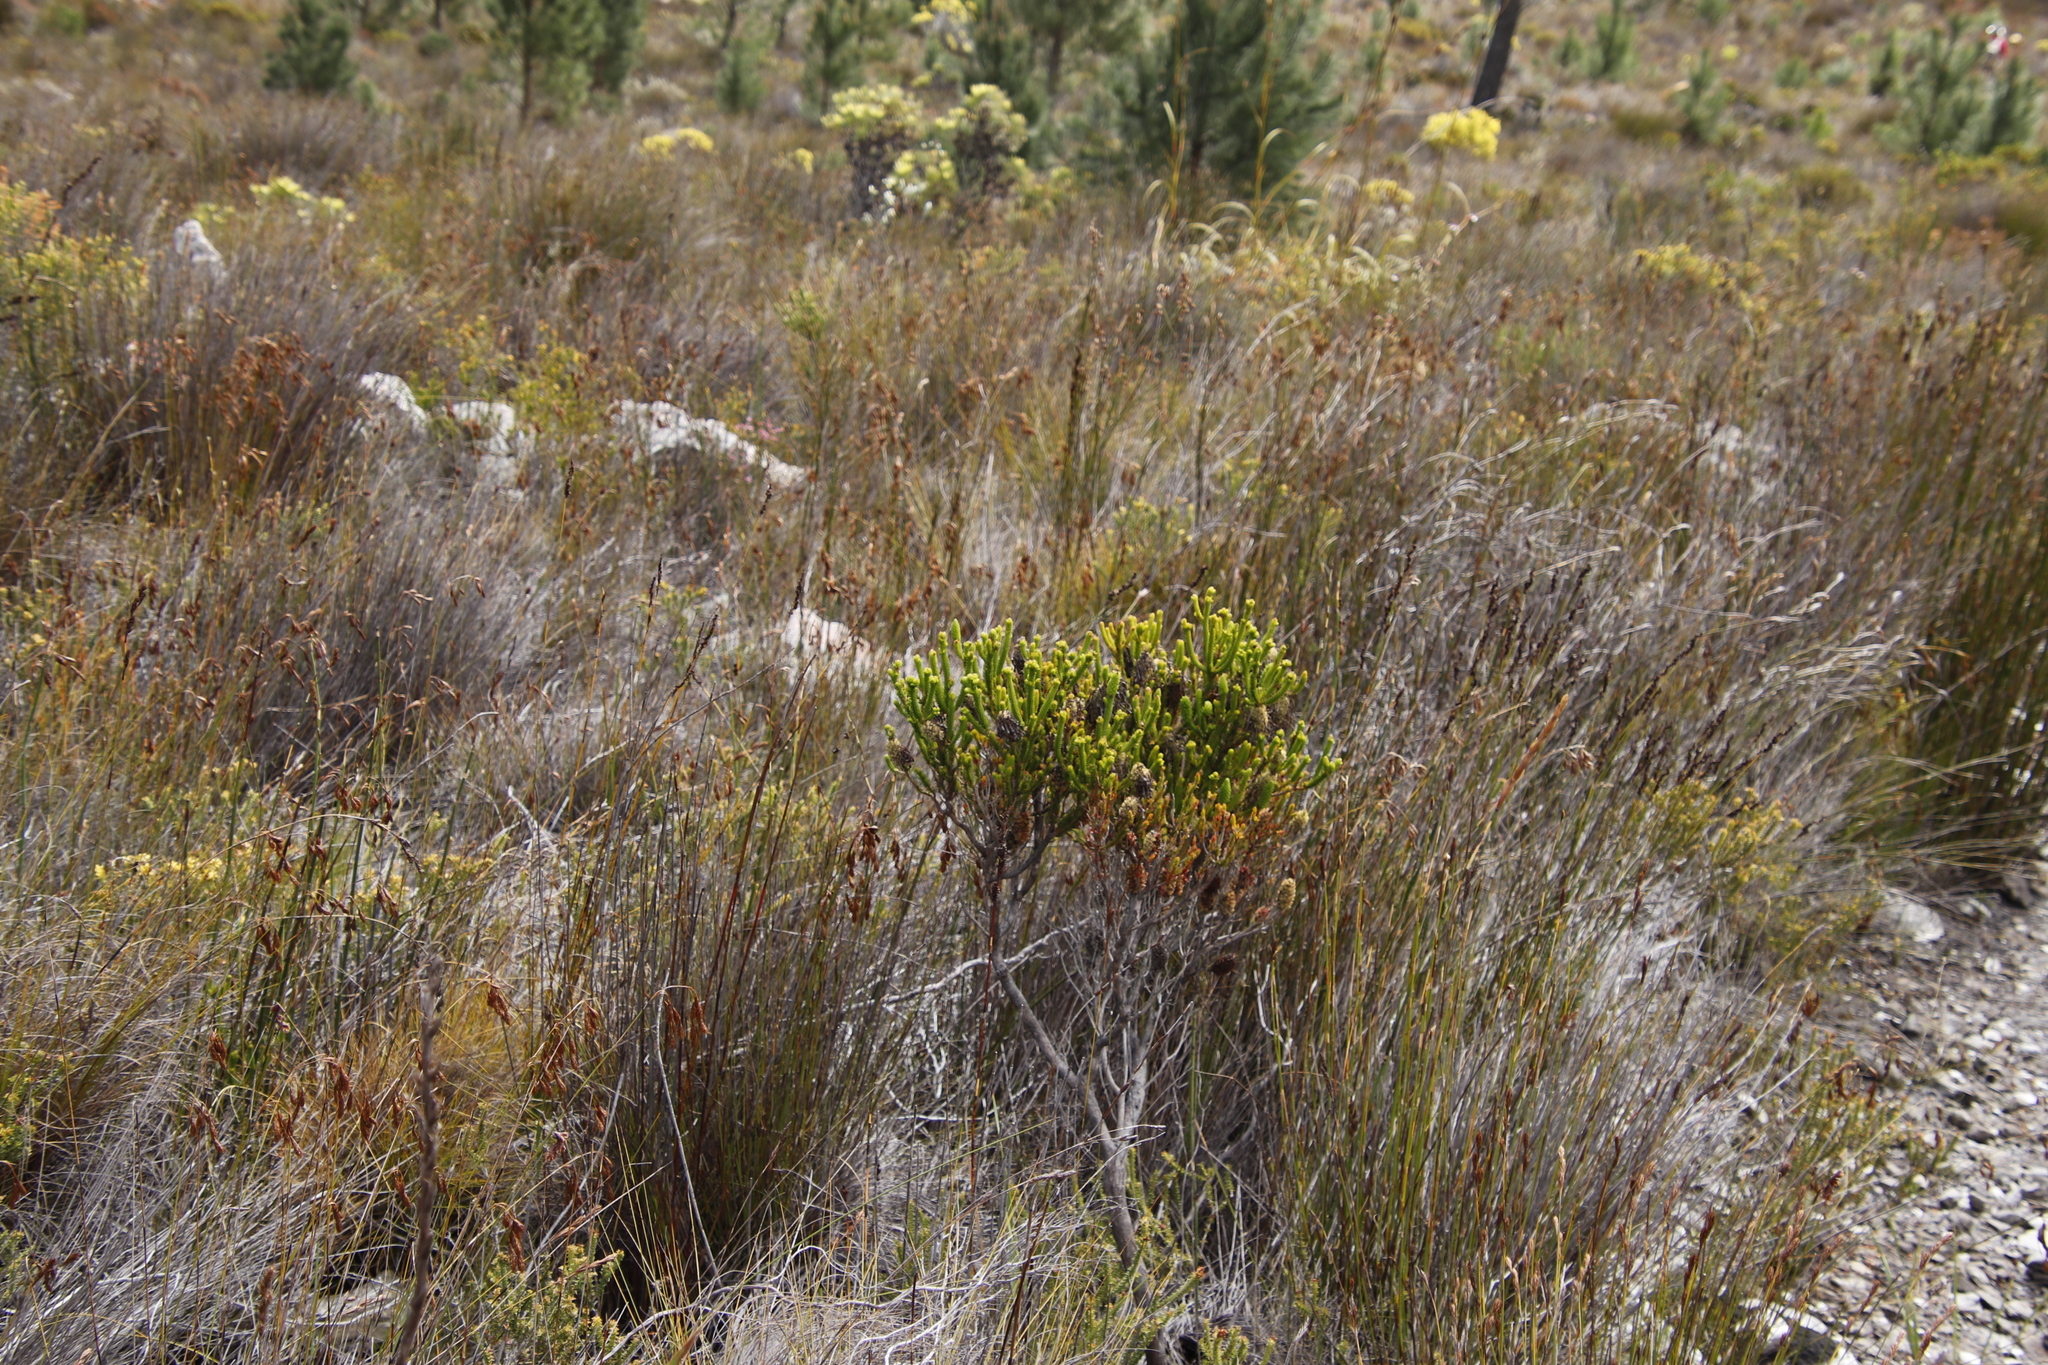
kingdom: Plantae
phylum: Tracheophyta
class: Magnoliopsida
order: Ericales
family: Ericaceae
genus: Erica
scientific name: Erica sessiliflora
